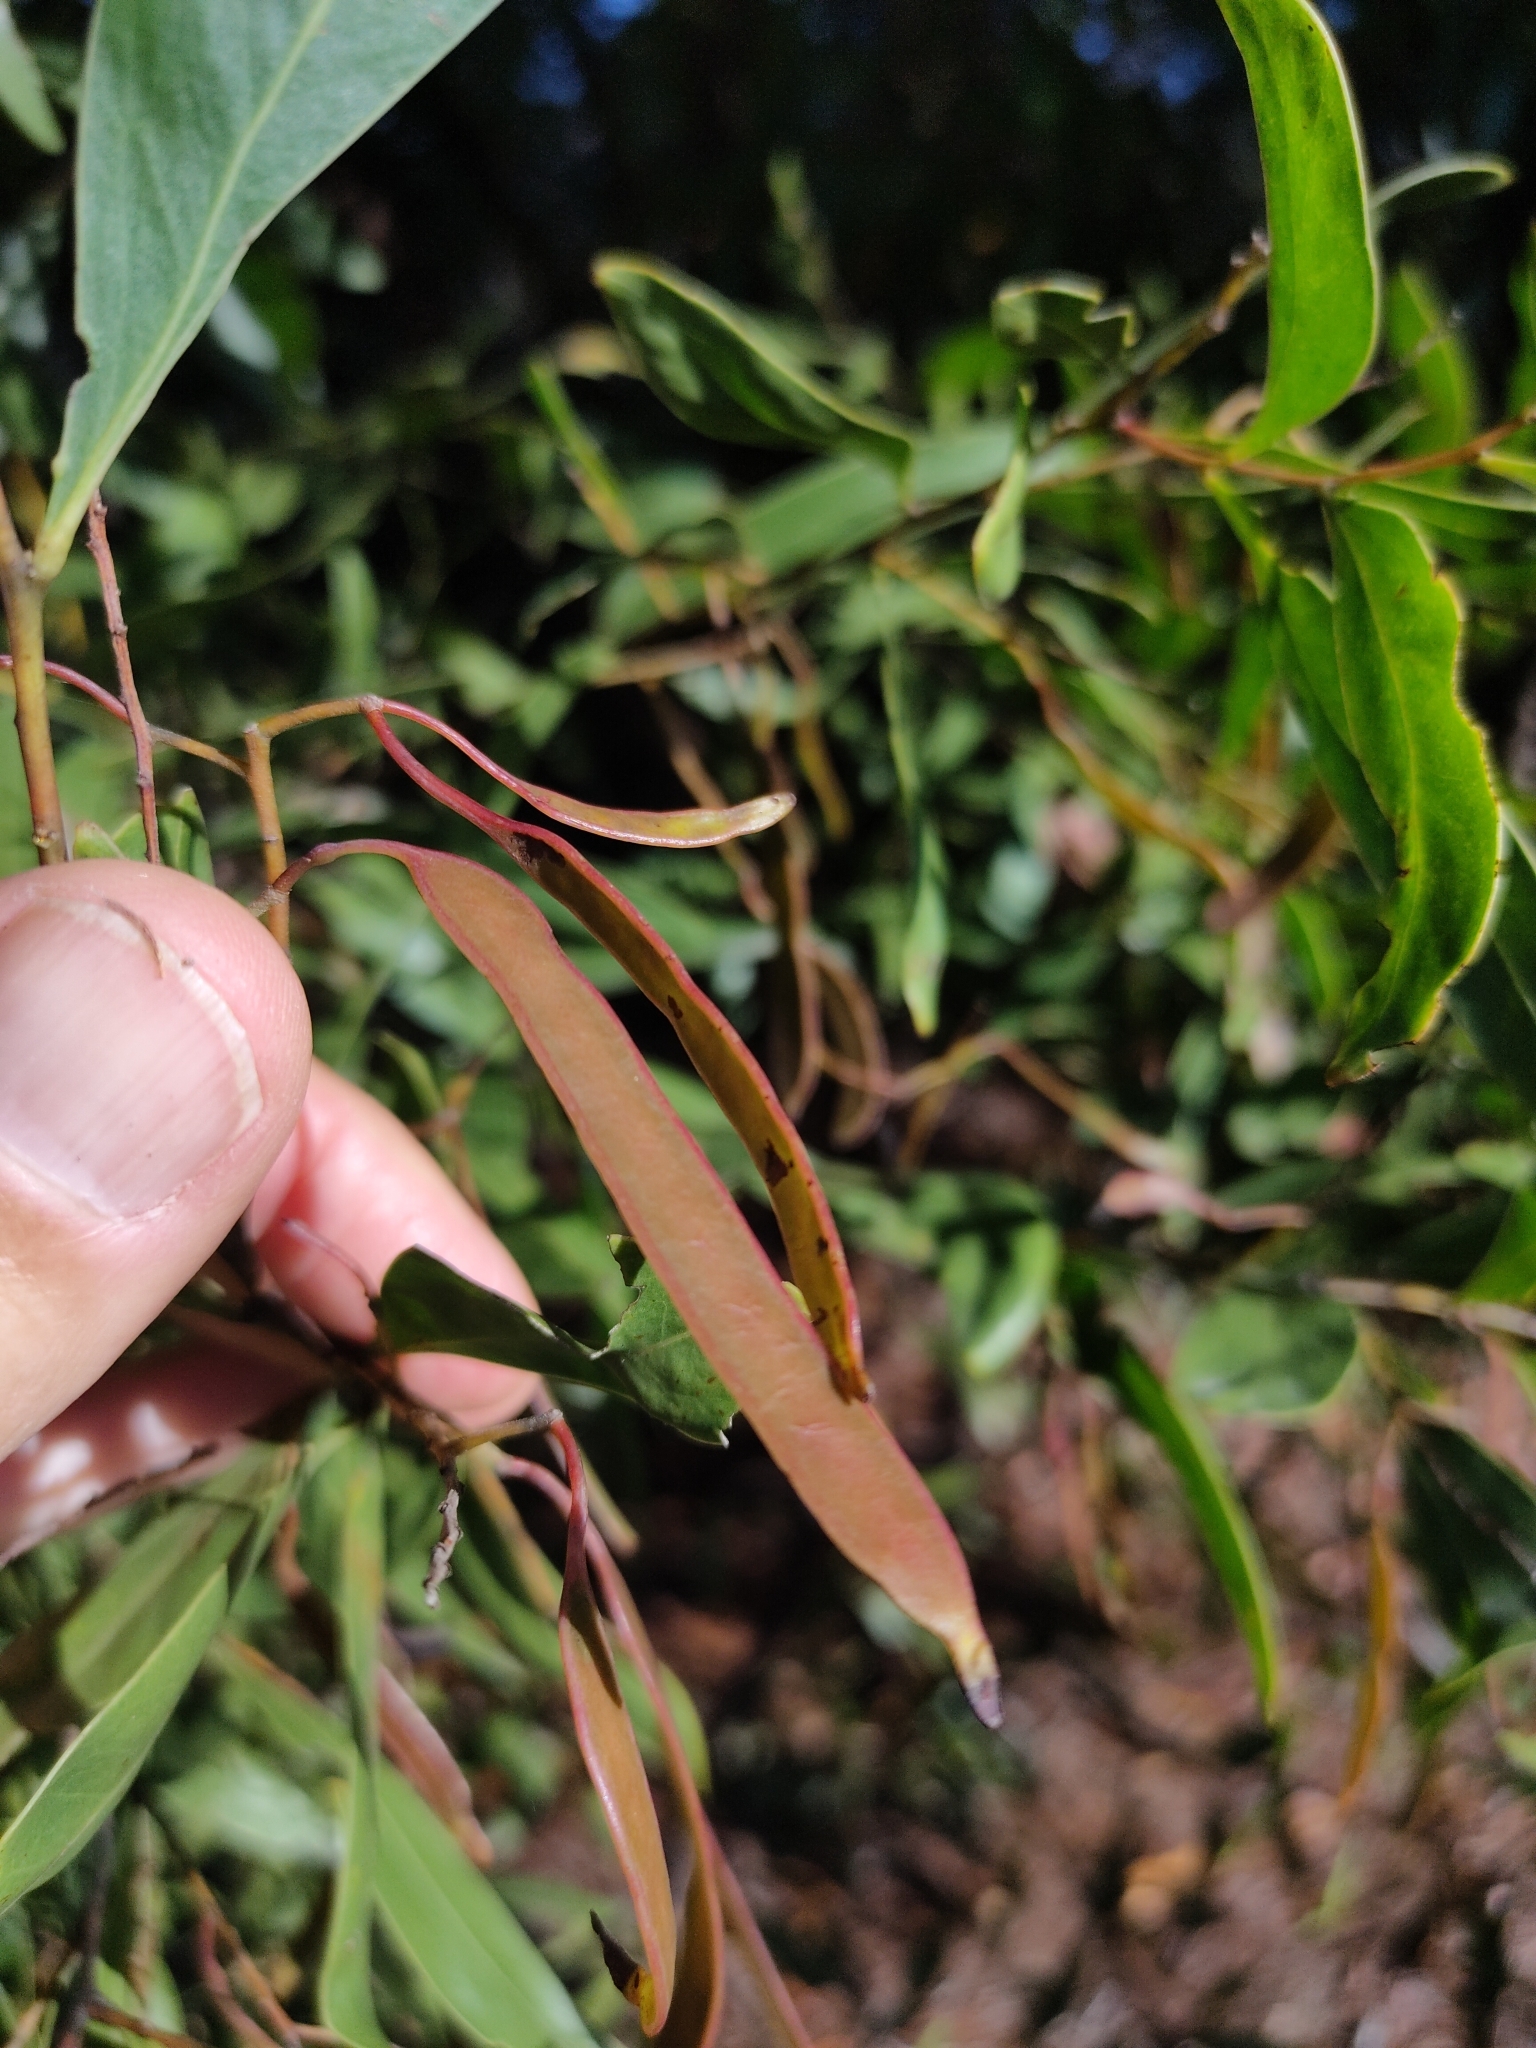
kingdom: Plantae
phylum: Tracheophyta
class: Magnoliopsida
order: Fabales
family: Fabaceae
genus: Acacia
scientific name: Acacia penninervis
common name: Hickory wattle
